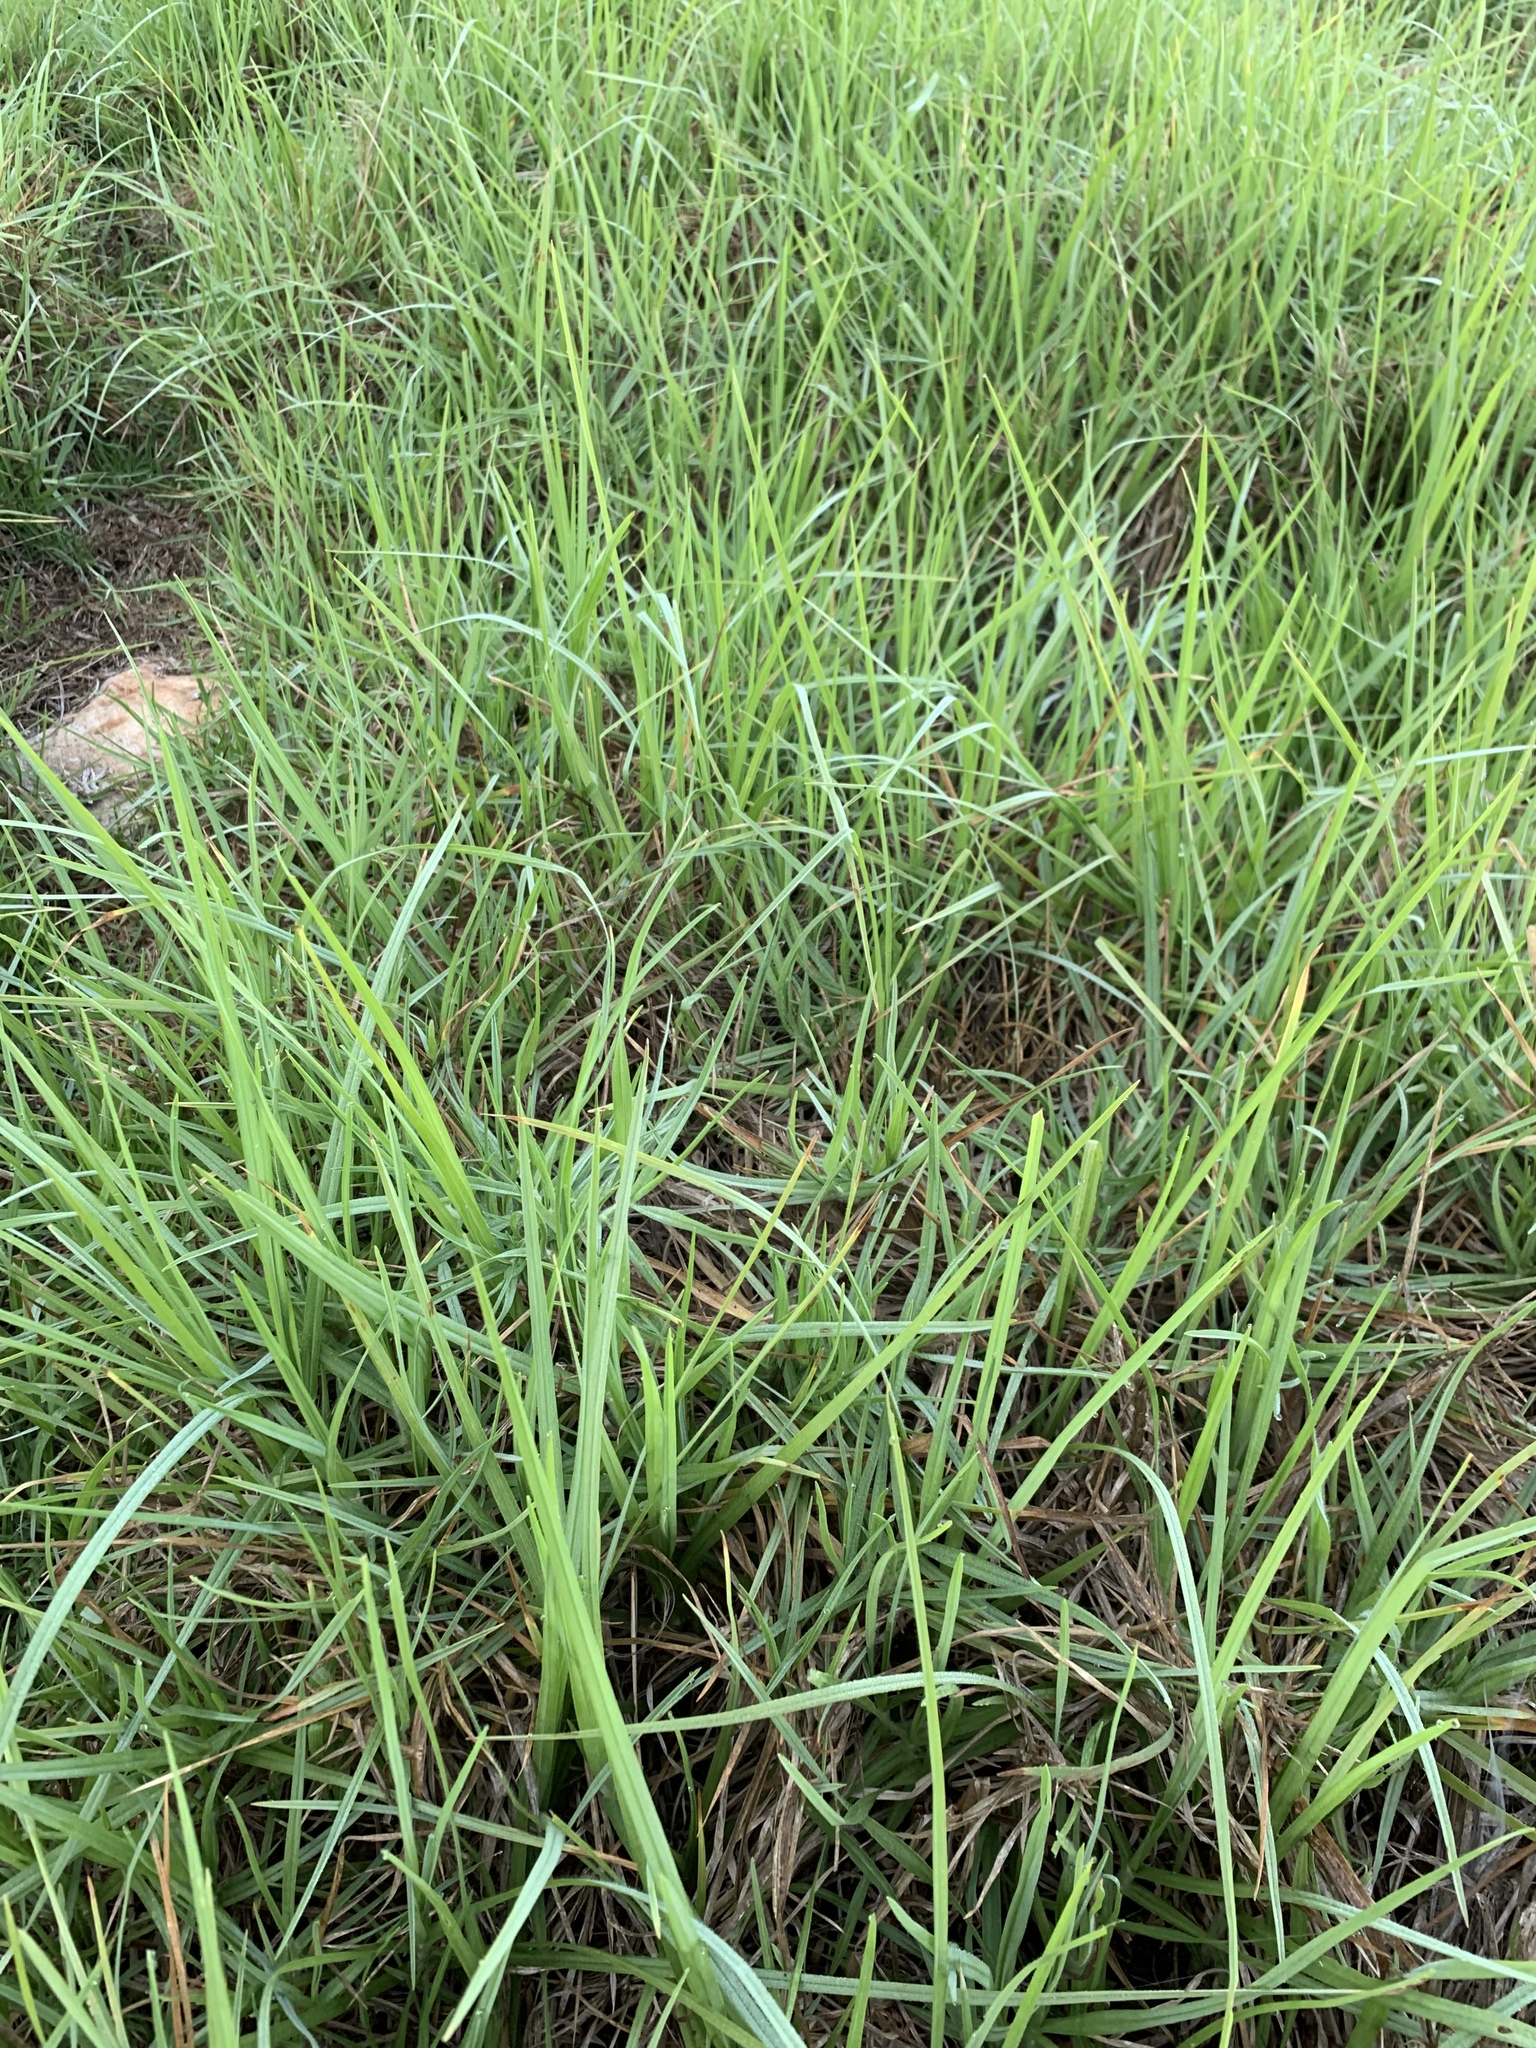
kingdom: Plantae
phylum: Tracheophyta
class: Liliopsida
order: Poales
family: Poaceae
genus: Cenchrus
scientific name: Cenchrus clandestinus
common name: Kikuyugrass
